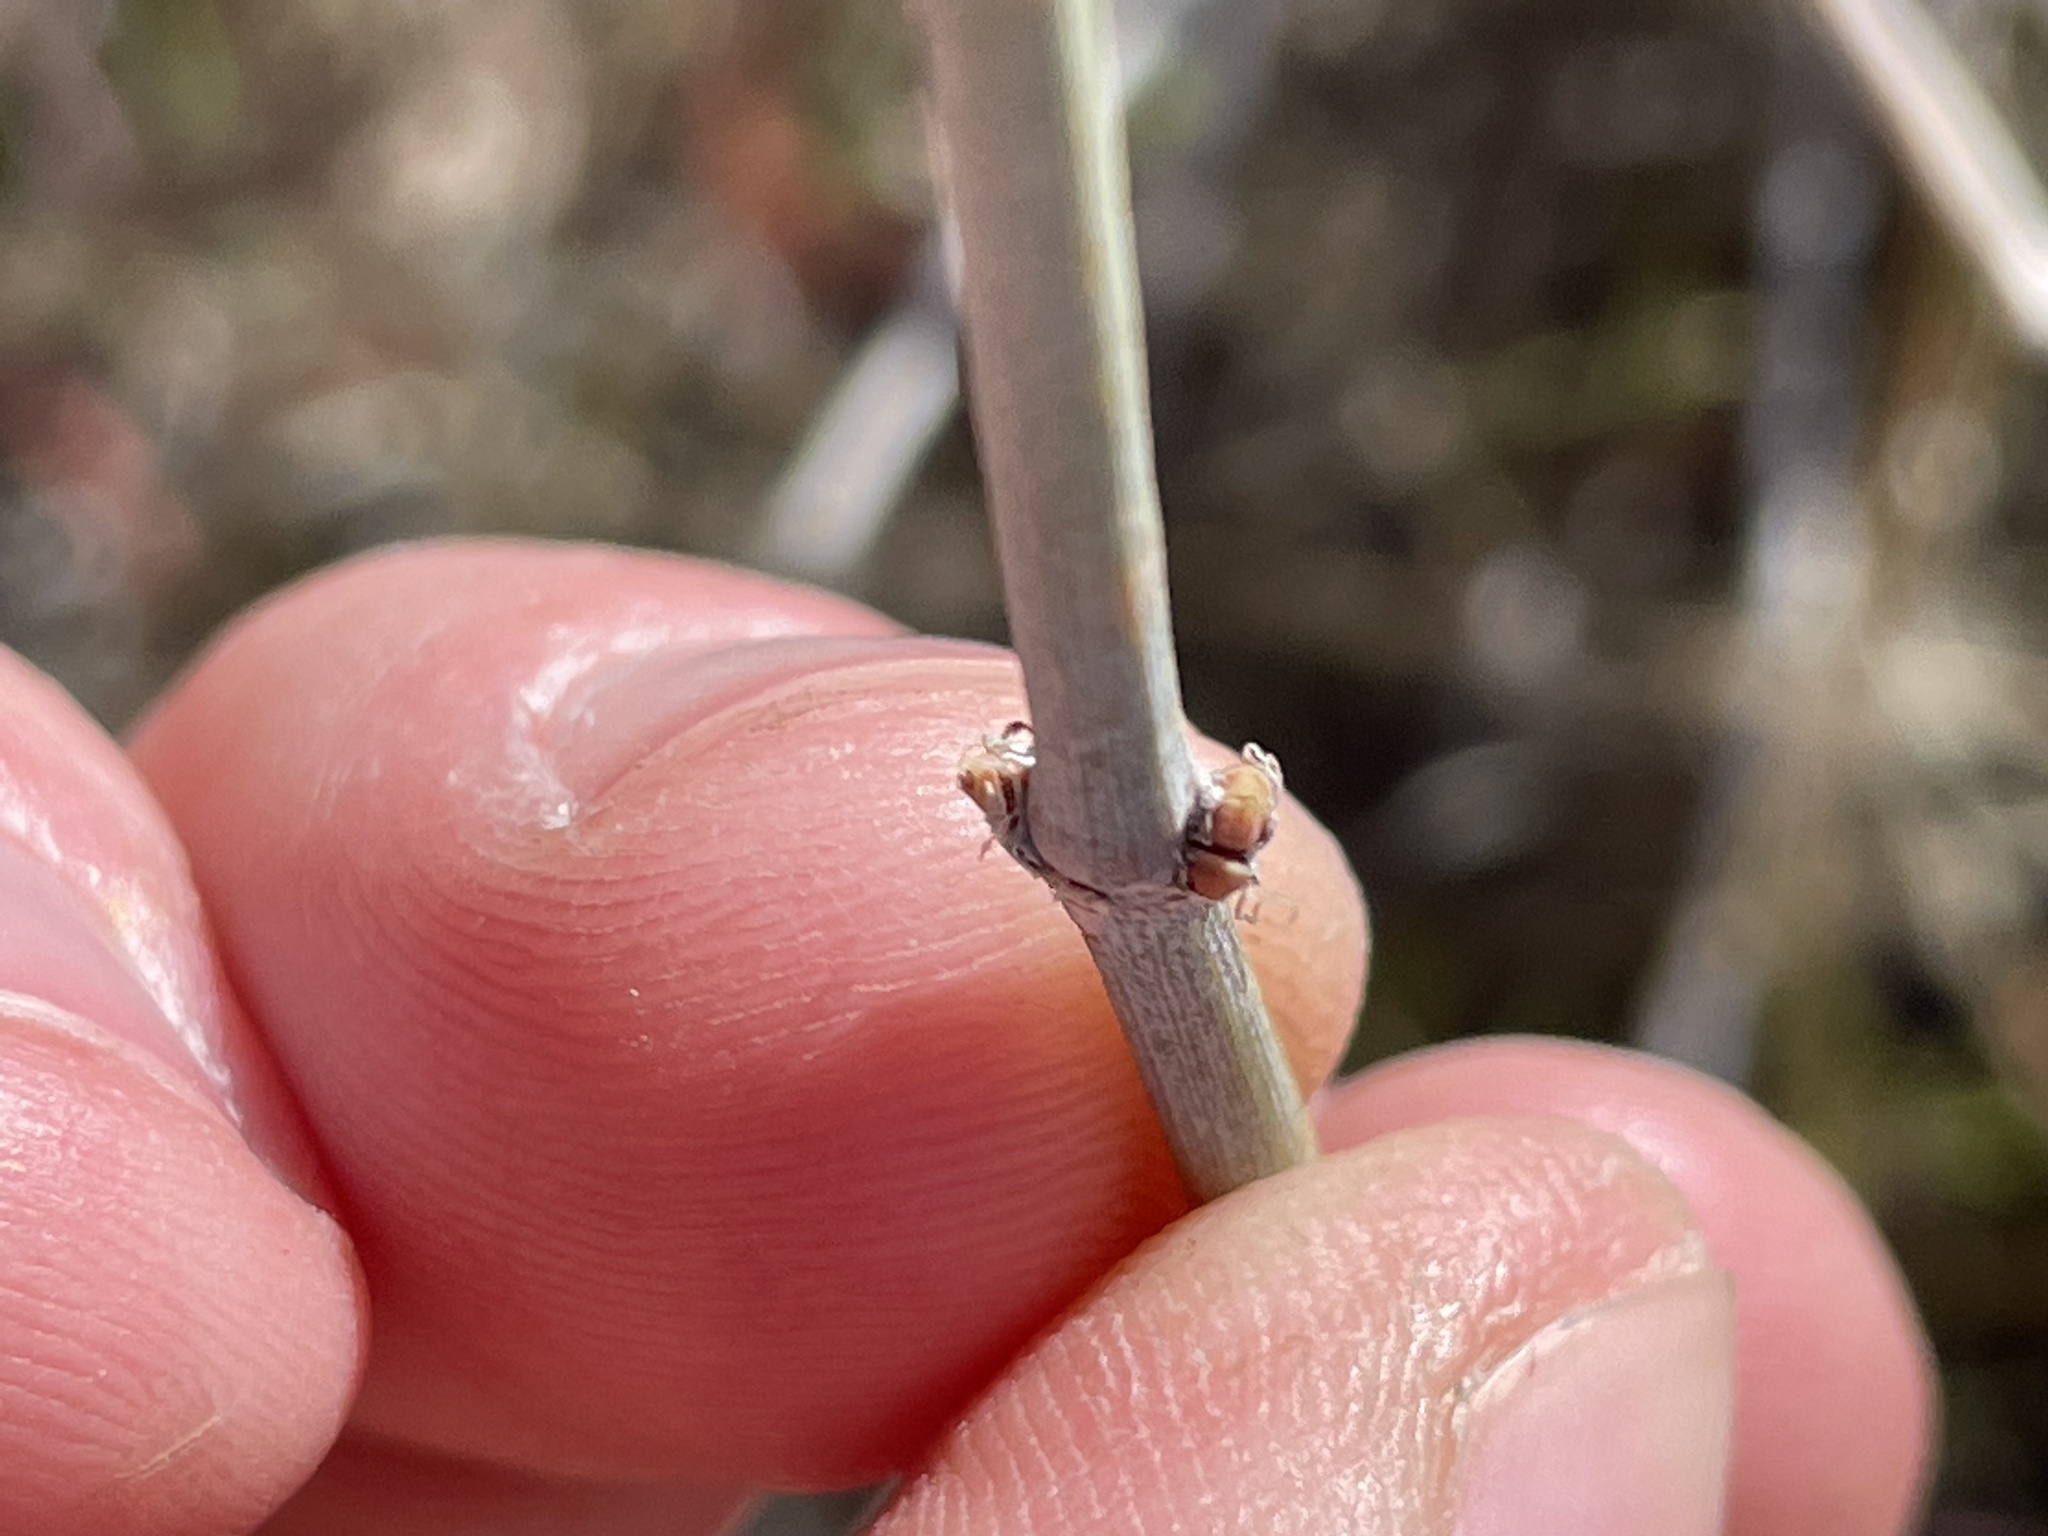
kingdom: Plantae
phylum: Tracheophyta
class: Gnetopsida
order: Ephedrales
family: Ephedraceae
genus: Ephedra
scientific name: Ephedra nevadensis
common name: Gray ephedra
